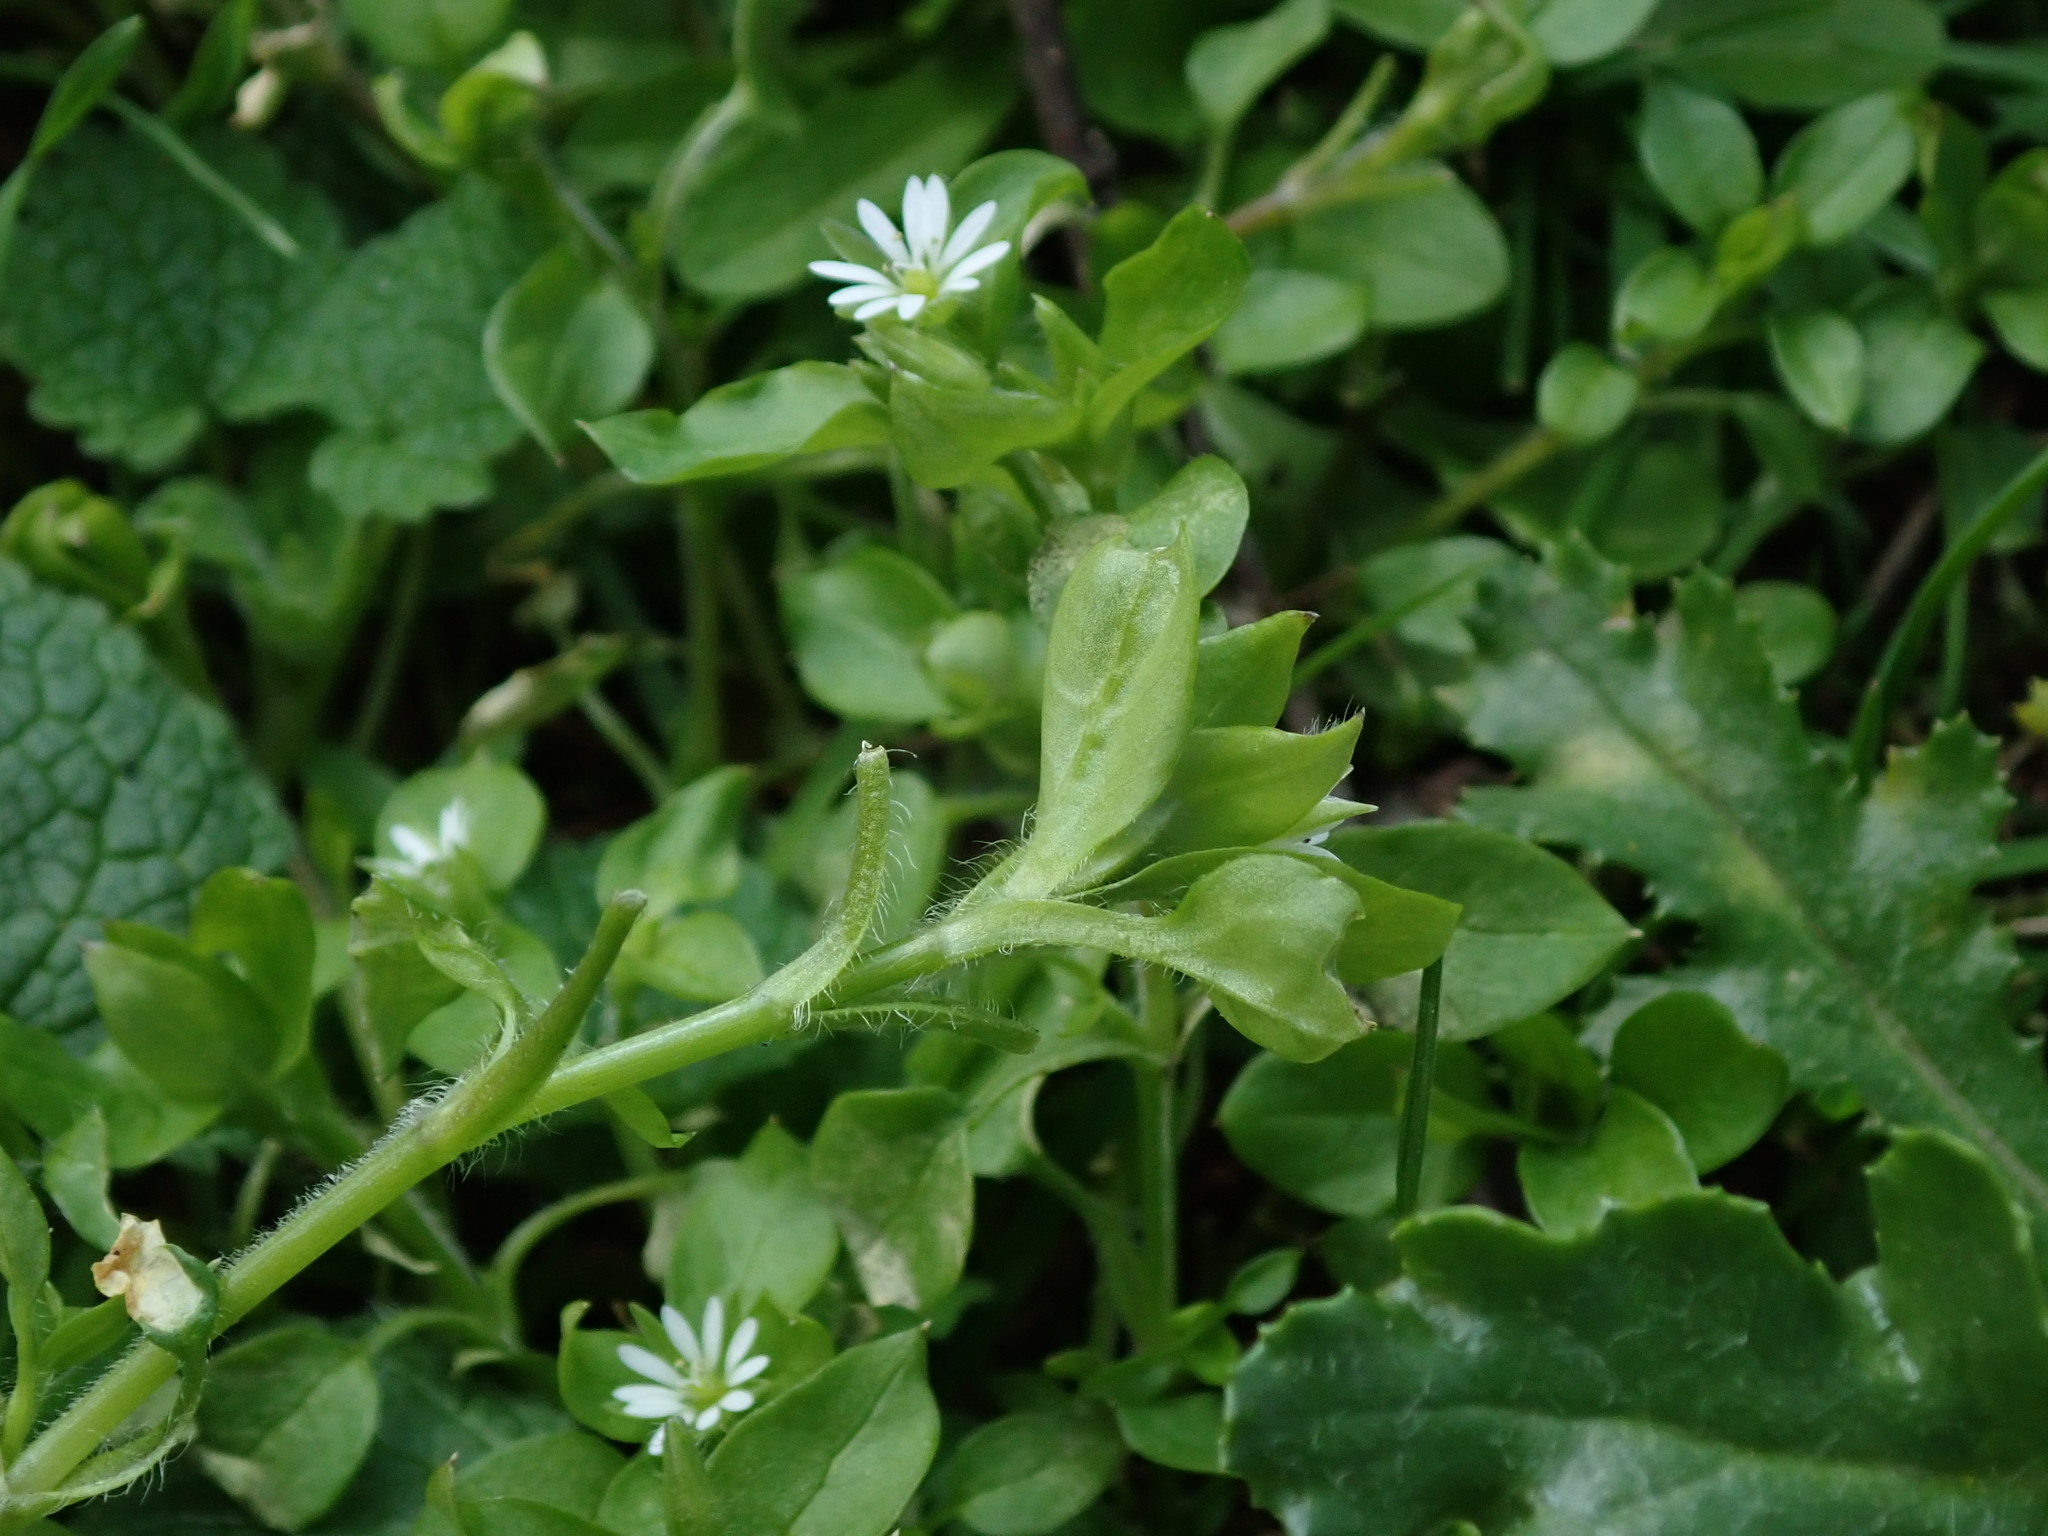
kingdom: Plantae
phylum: Tracheophyta
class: Magnoliopsida
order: Caryophyllales
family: Caryophyllaceae
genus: Stellaria
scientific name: Stellaria media
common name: Common chickweed
